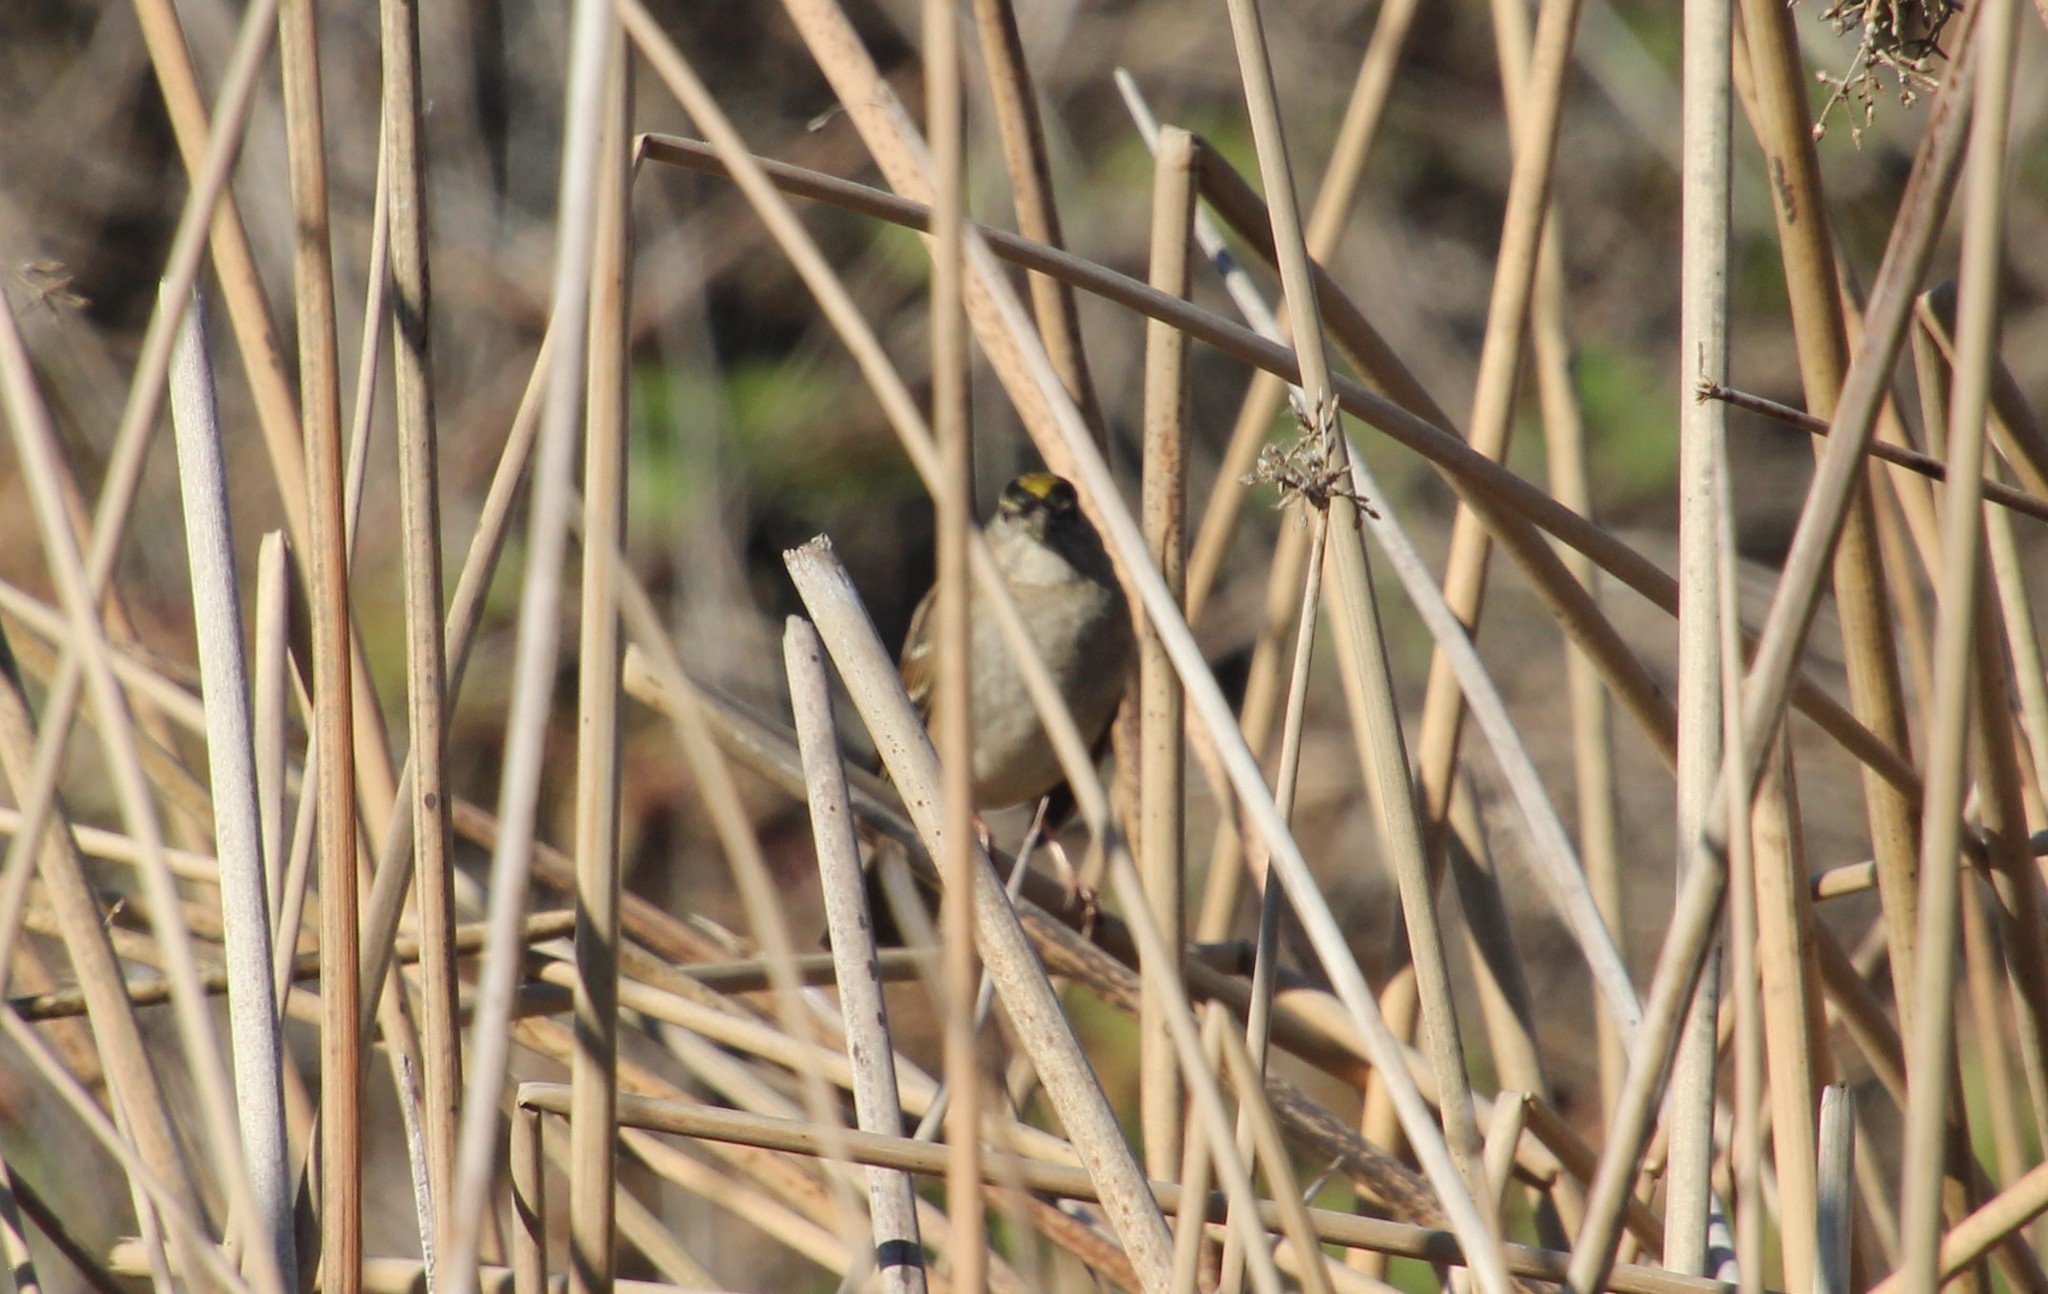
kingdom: Animalia
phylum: Chordata
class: Aves
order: Passeriformes
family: Passerellidae
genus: Zonotrichia
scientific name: Zonotrichia atricapilla
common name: Golden-crowned sparrow
